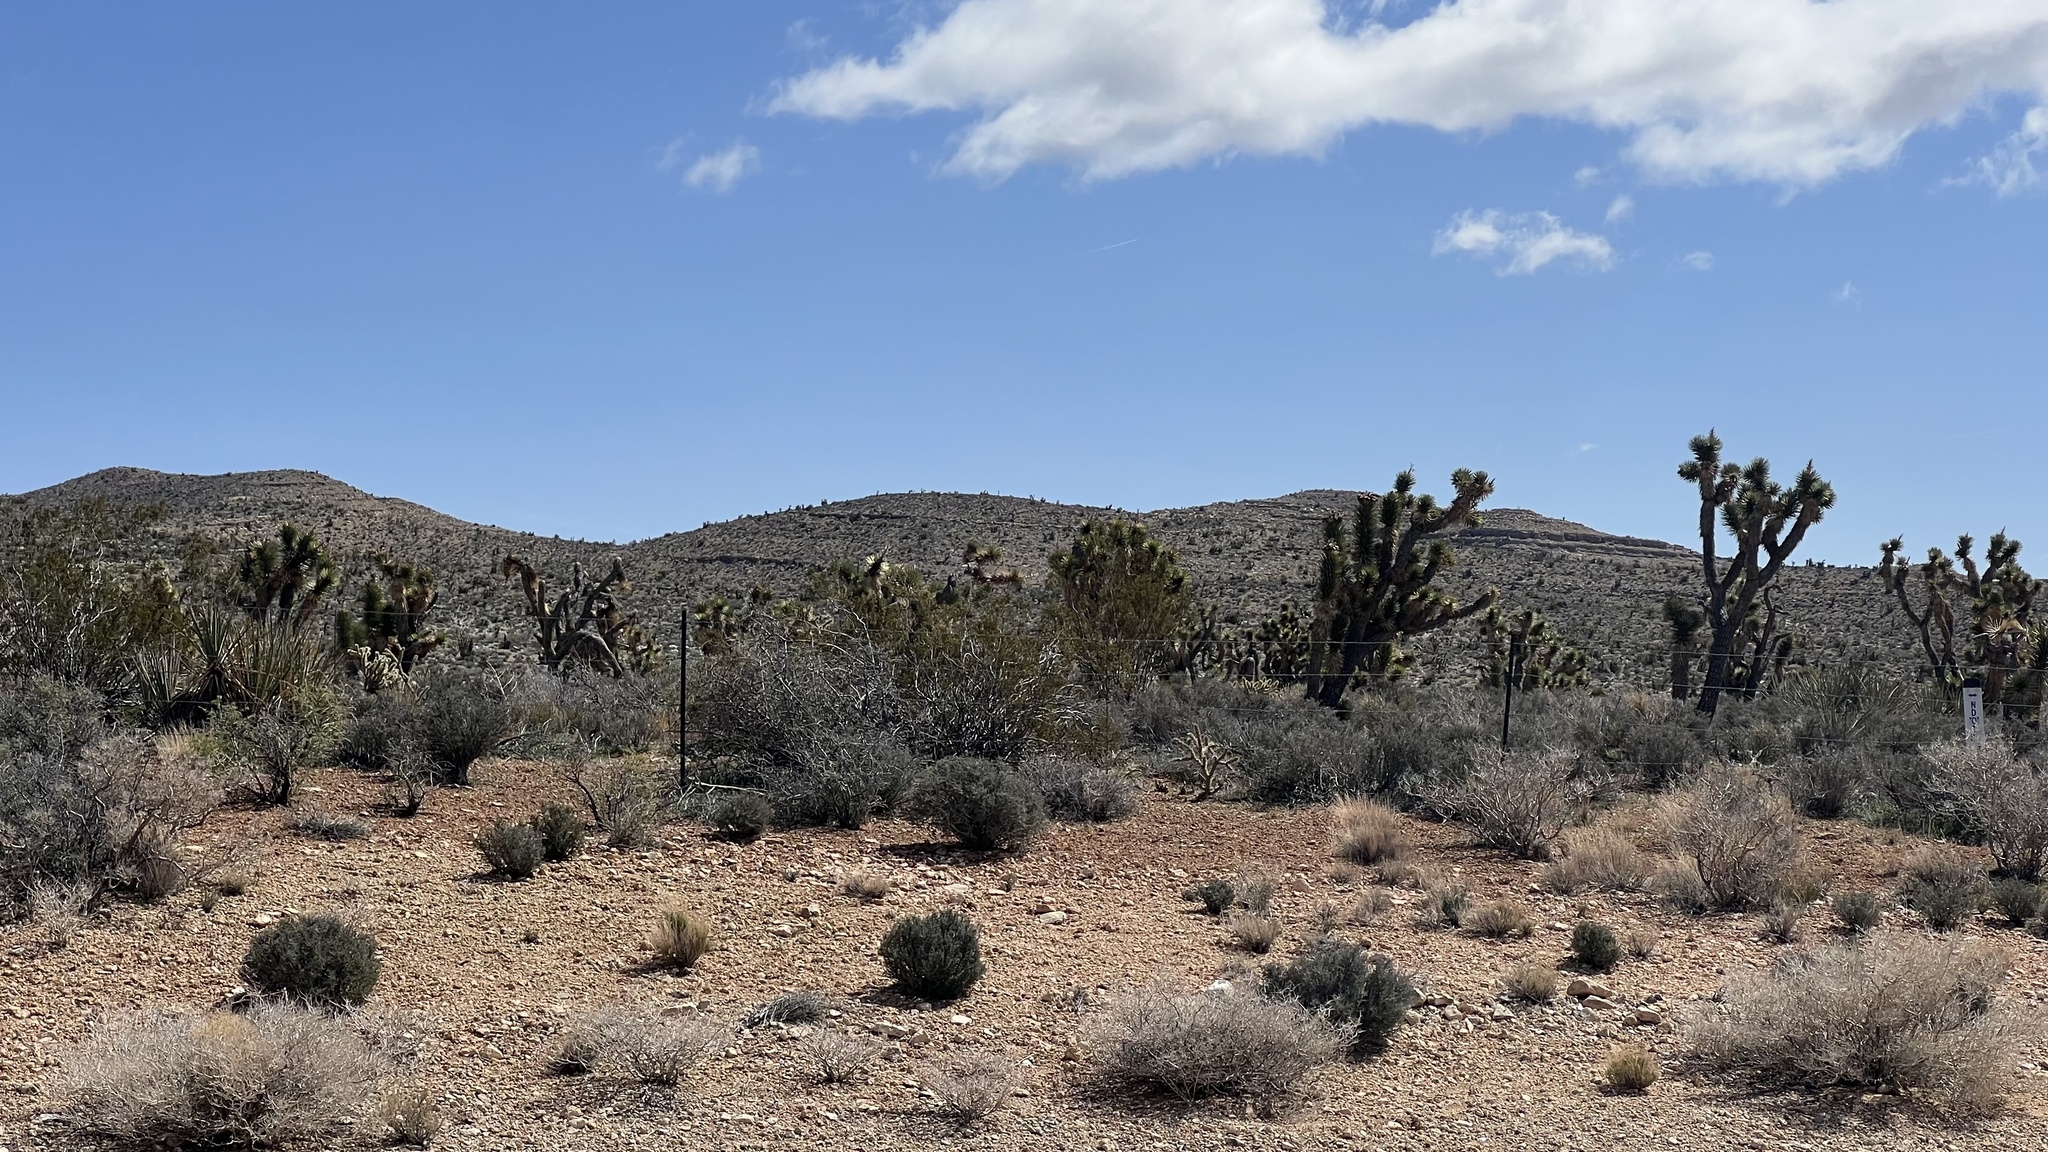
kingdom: Plantae
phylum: Tracheophyta
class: Liliopsida
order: Asparagales
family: Asparagaceae
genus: Yucca
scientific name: Yucca brevifolia
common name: Joshua tree
